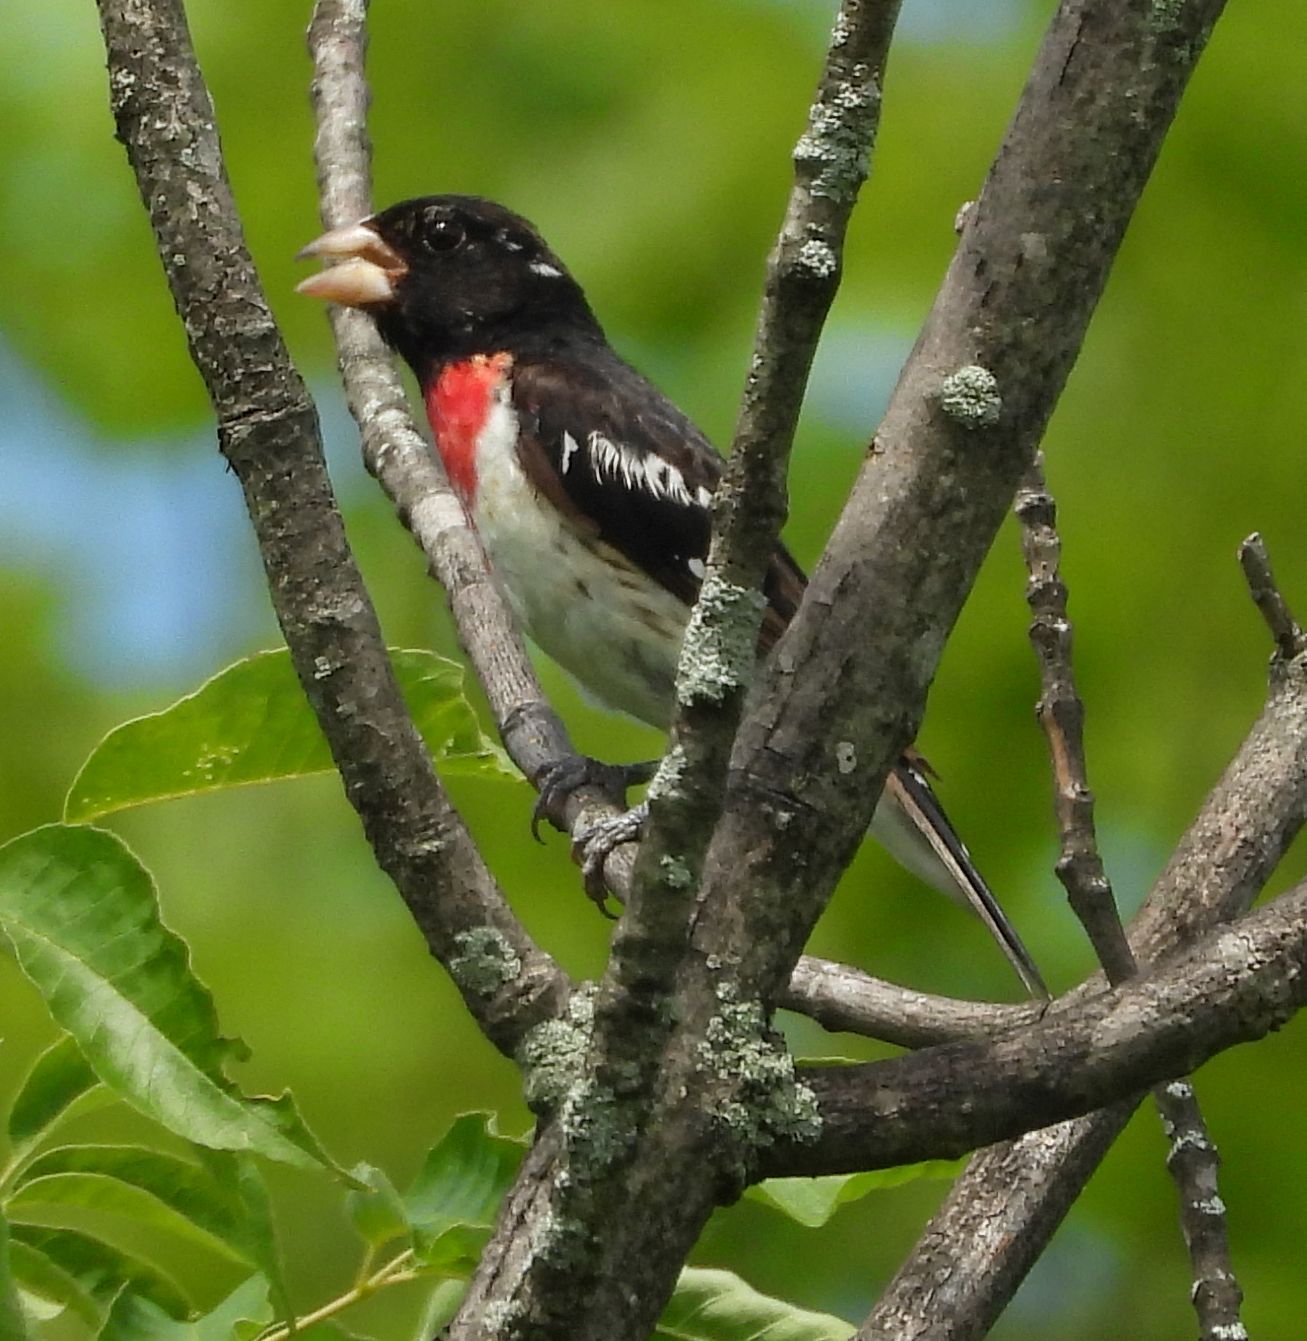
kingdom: Animalia
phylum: Chordata
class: Aves
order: Passeriformes
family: Cardinalidae
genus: Pheucticus
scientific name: Pheucticus ludovicianus
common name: Rose-breasted grosbeak
